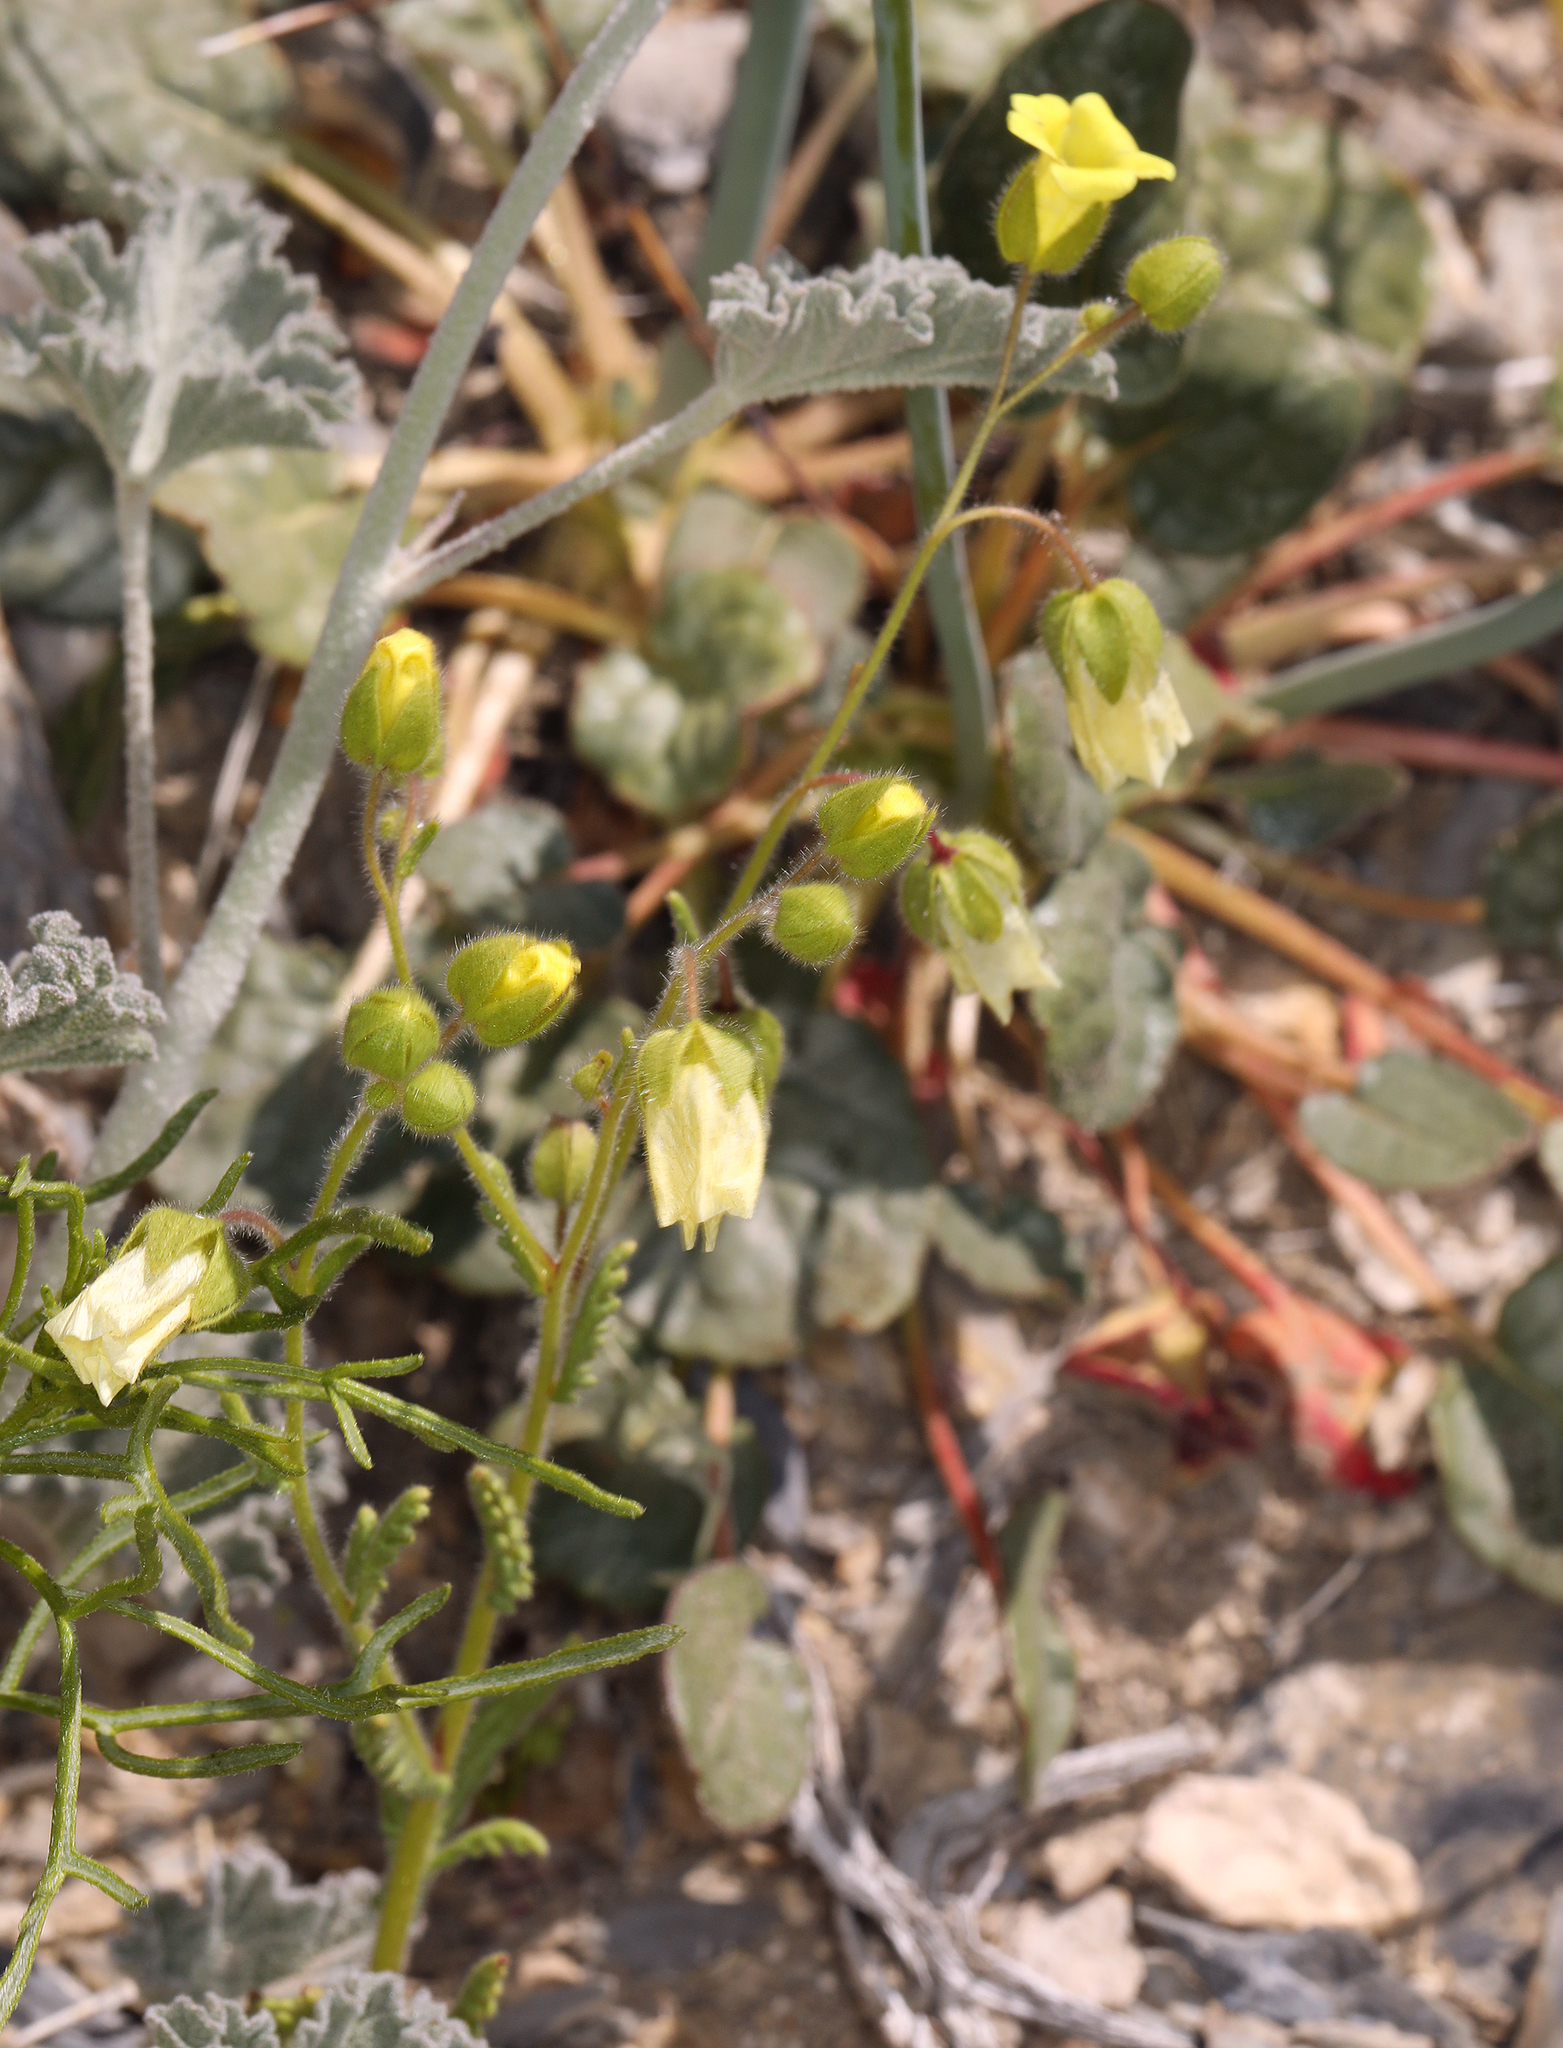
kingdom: Plantae
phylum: Tracheophyta
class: Magnoliopsida
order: Boraginales
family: Hydrophyllaceae
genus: Emmenanthe
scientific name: Emmenanthe penduliflora
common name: Whispering-bells
